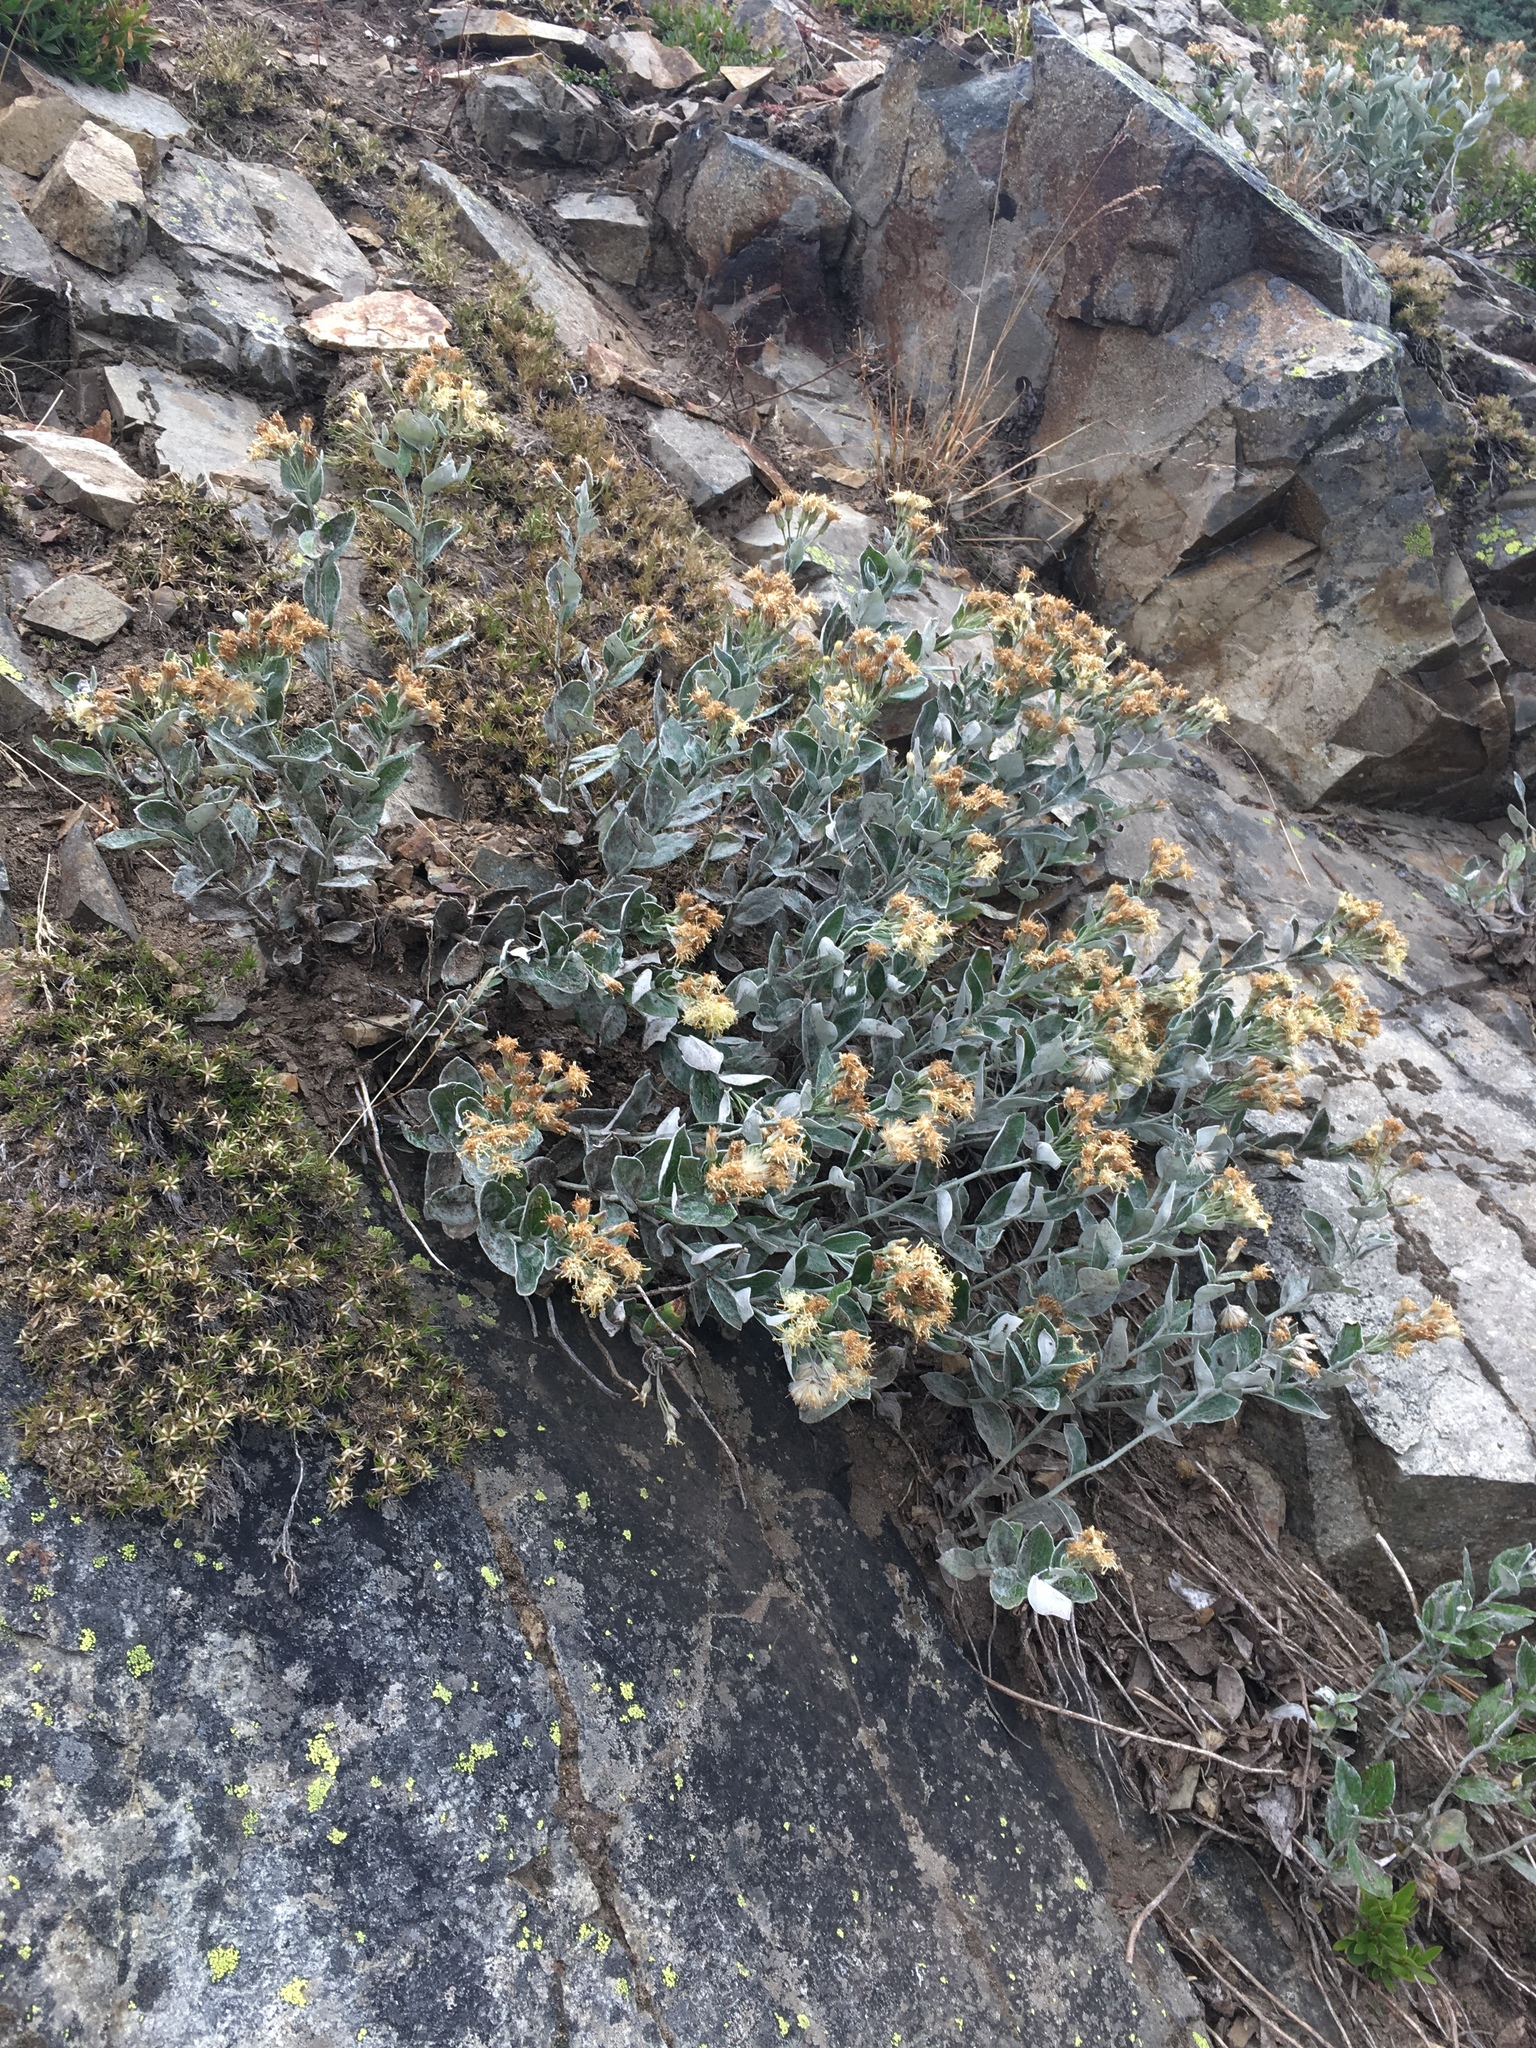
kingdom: Plantae
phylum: Tracheophyta
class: Magnoliopsida
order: Asterales
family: Asteraceae
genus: Luina
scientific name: Luina hypoleuca
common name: Little-leaved luina
